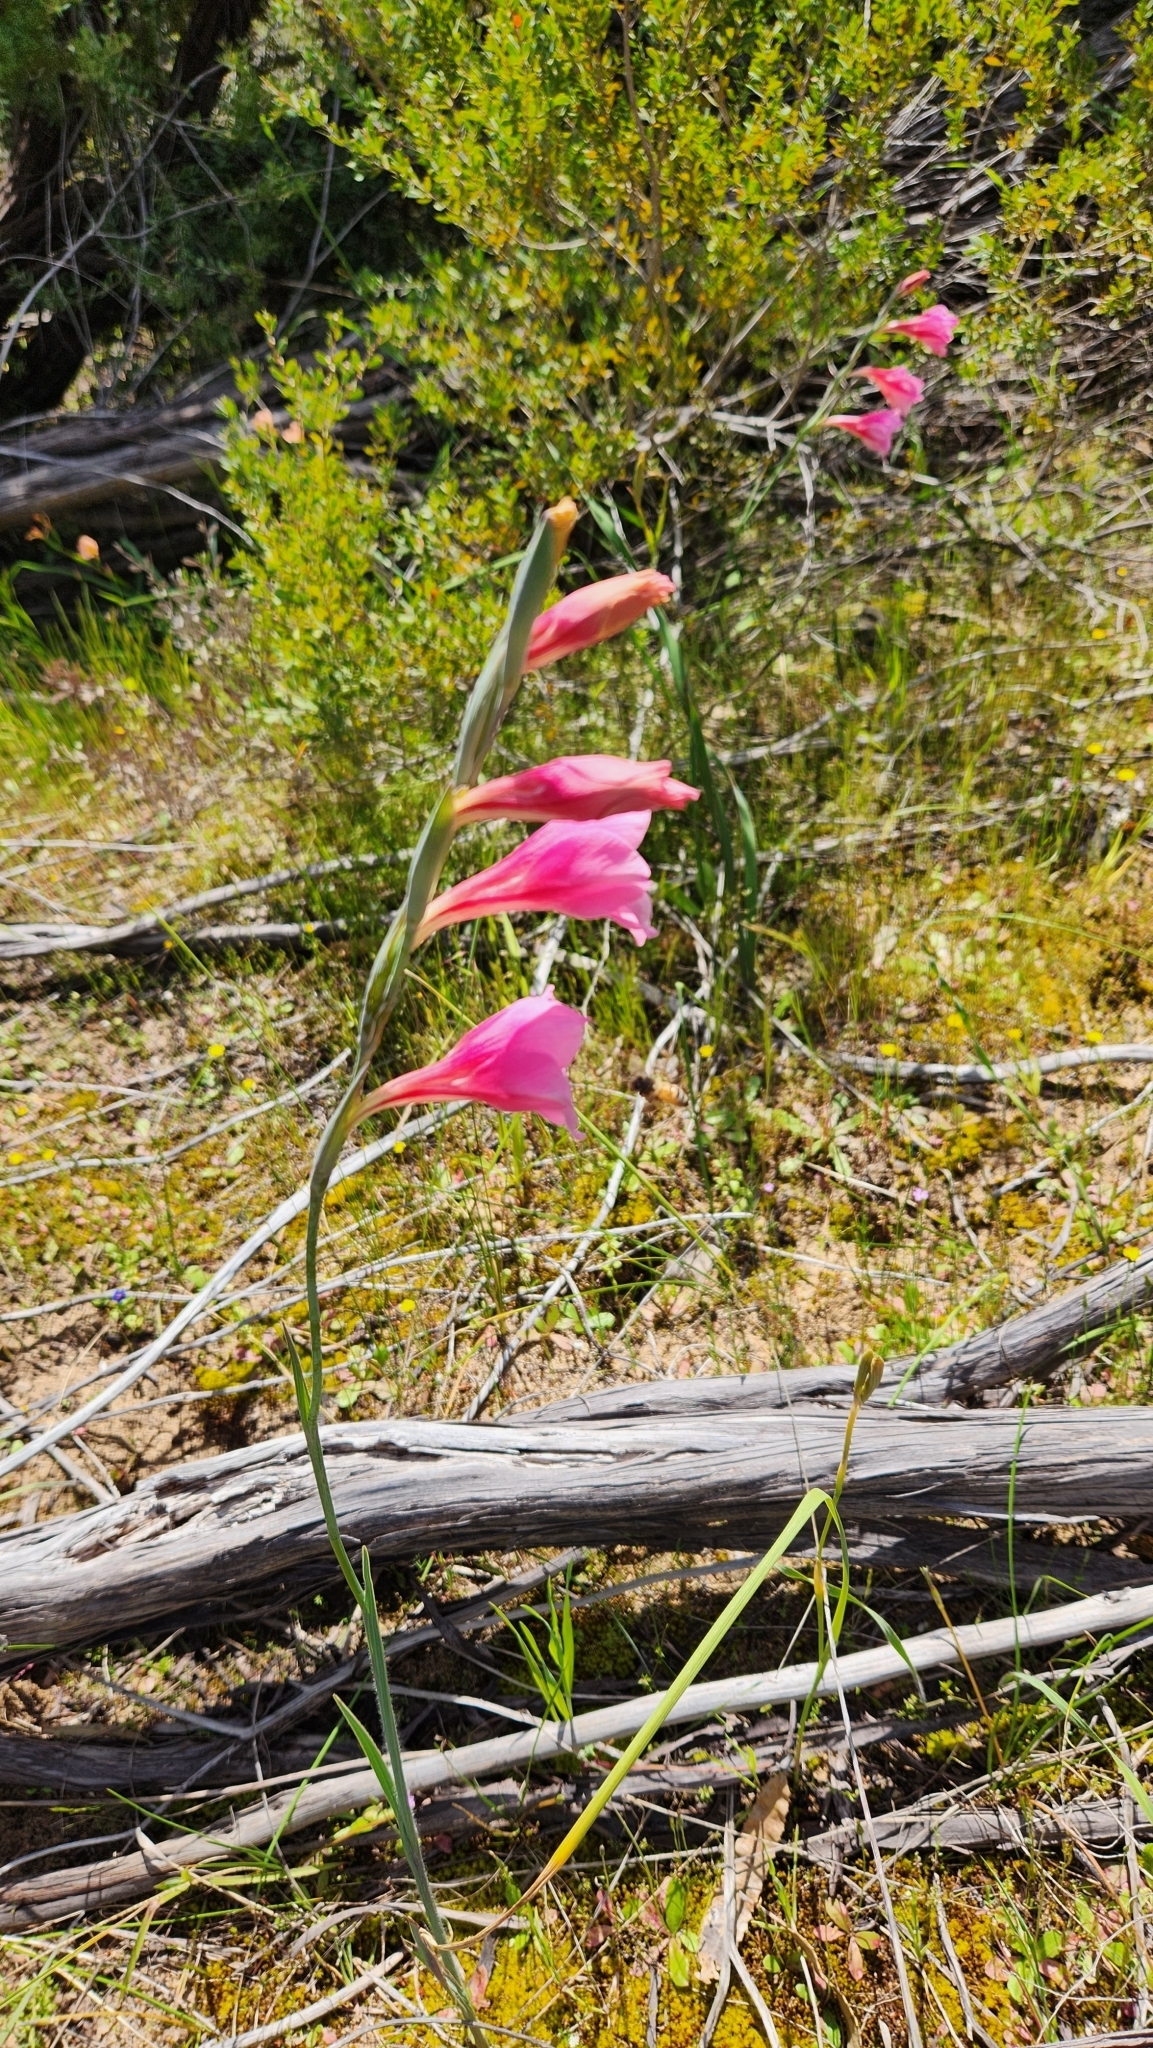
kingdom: Plantae
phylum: Tracheophyta
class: Liliopsida
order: Asparagales
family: Iridaceae
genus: Gladiolus
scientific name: Gladiolus caryophyllaceus
